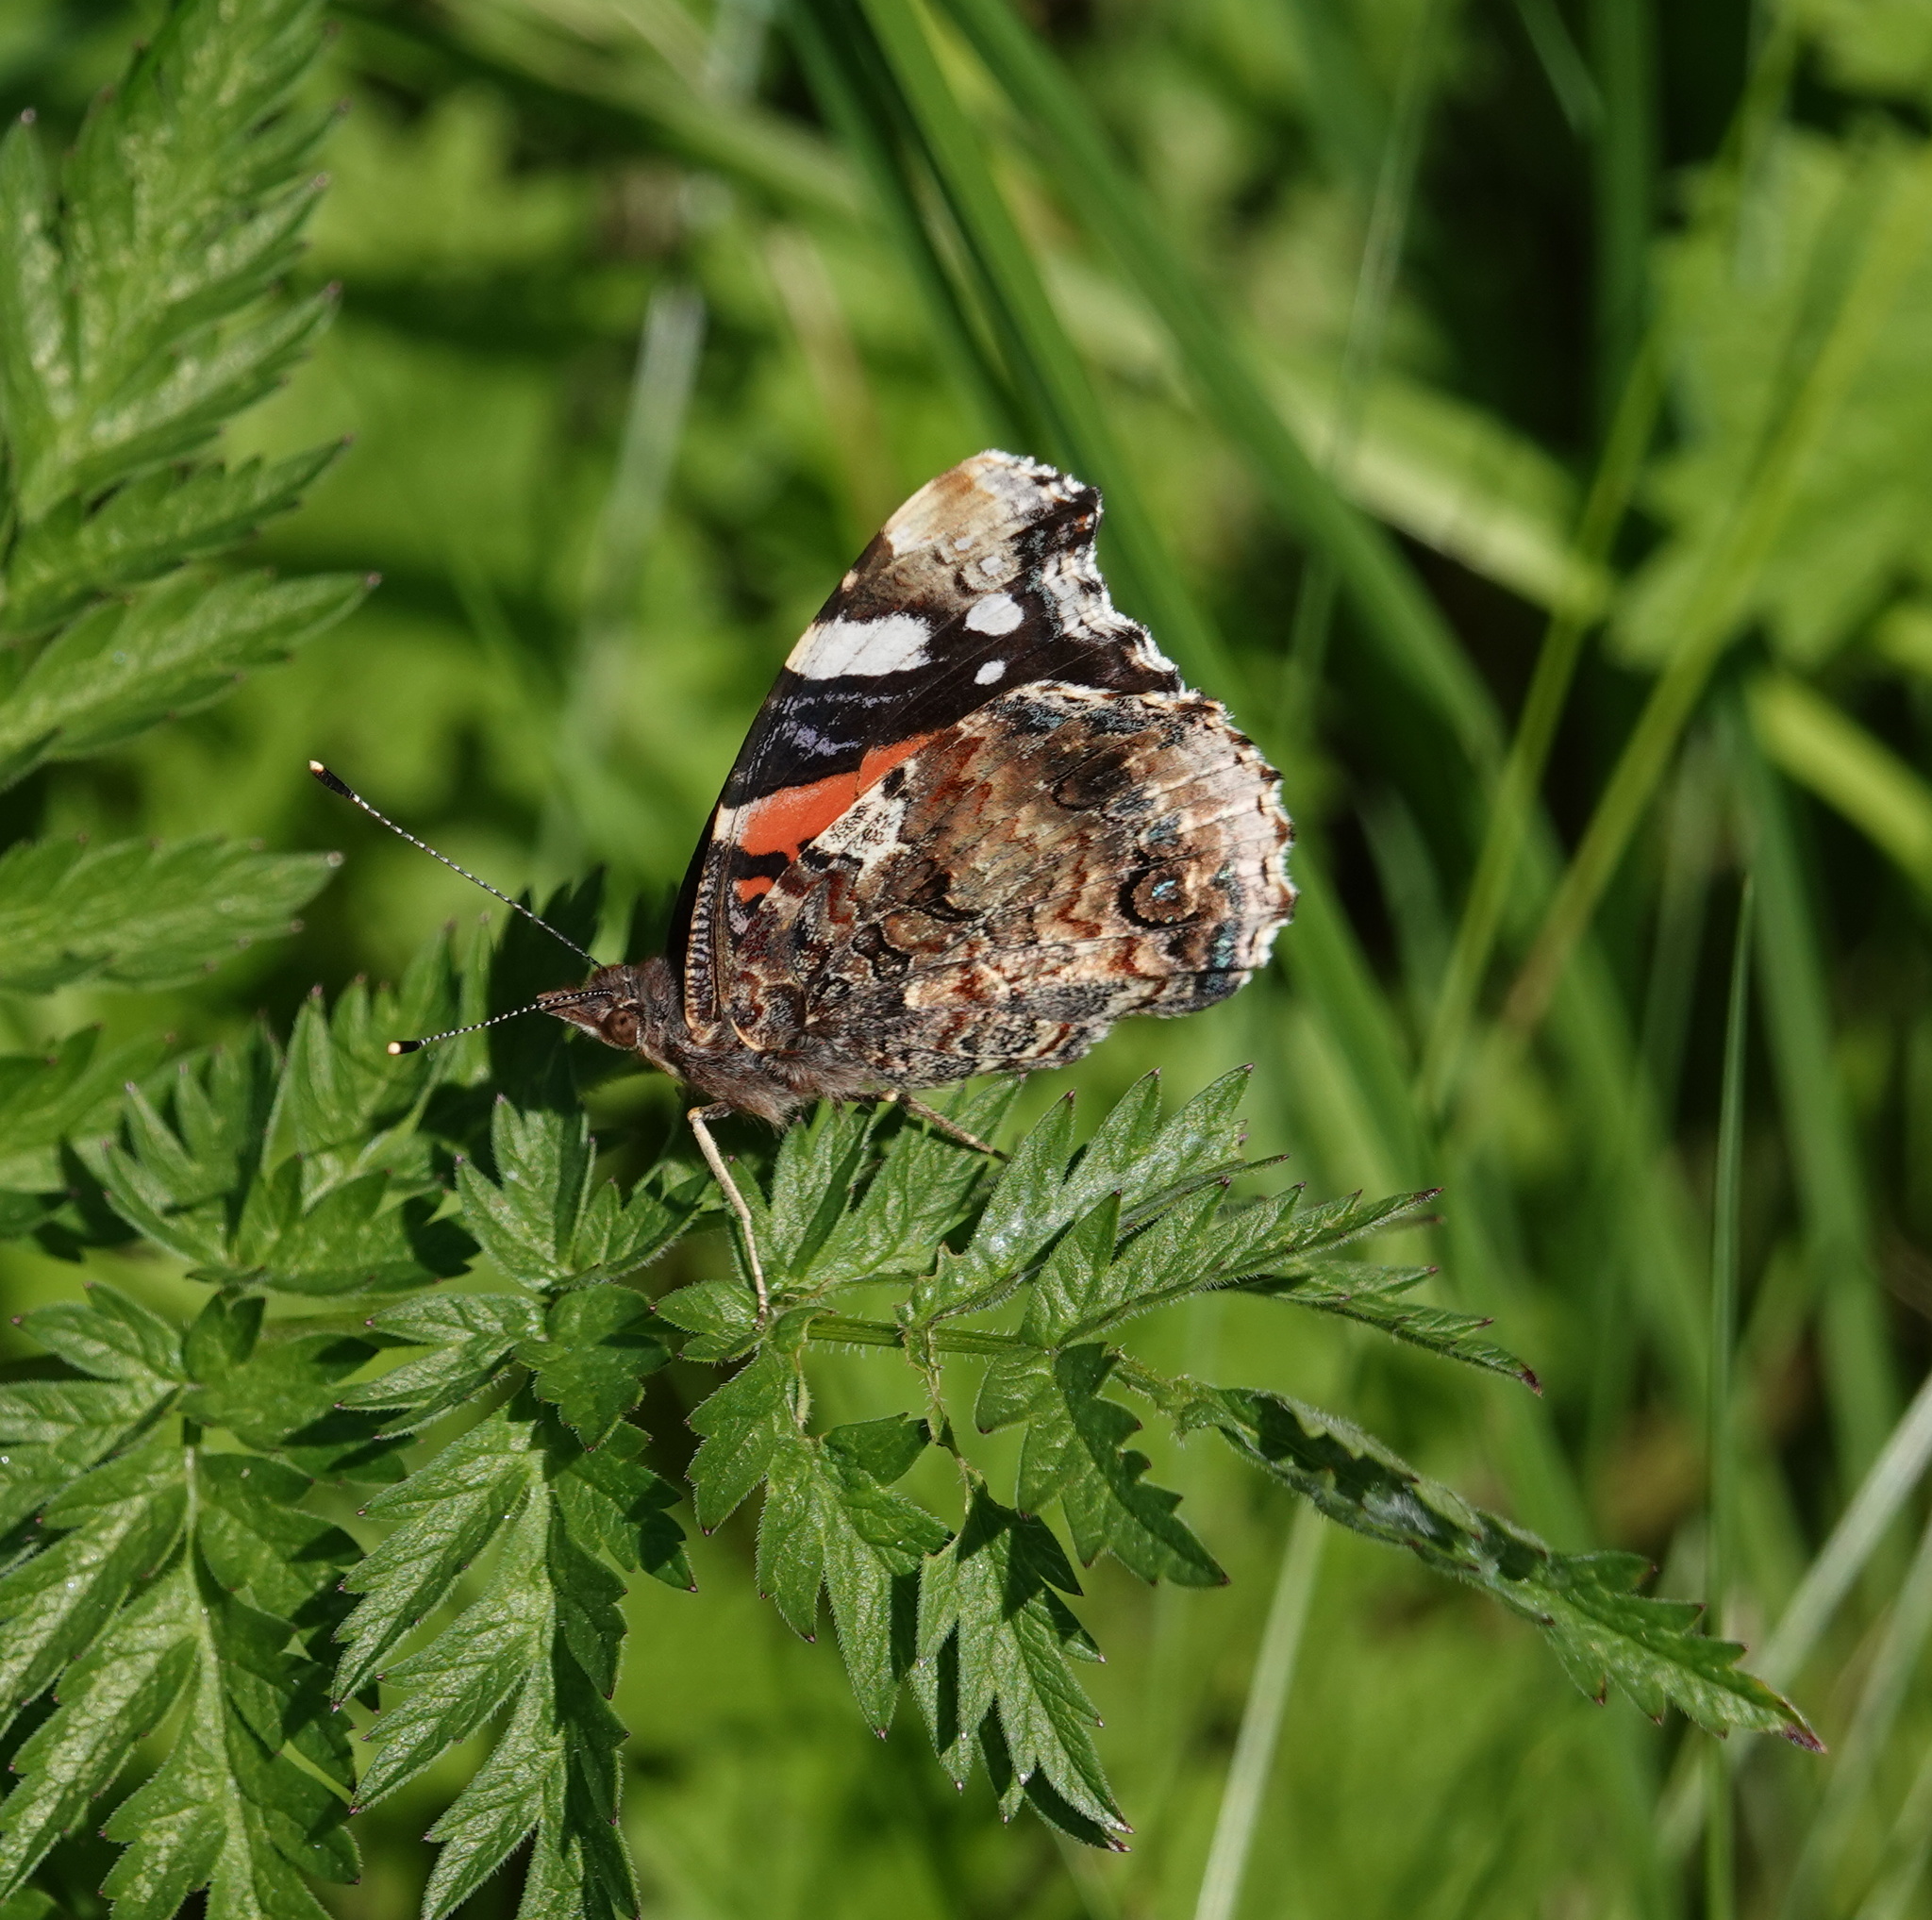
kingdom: Animalia
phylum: Arthropoda
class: Insecta
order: Lepidoptera
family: Nymphalidae
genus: Vanessa
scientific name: Vanessa atalanta
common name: Red admiral
